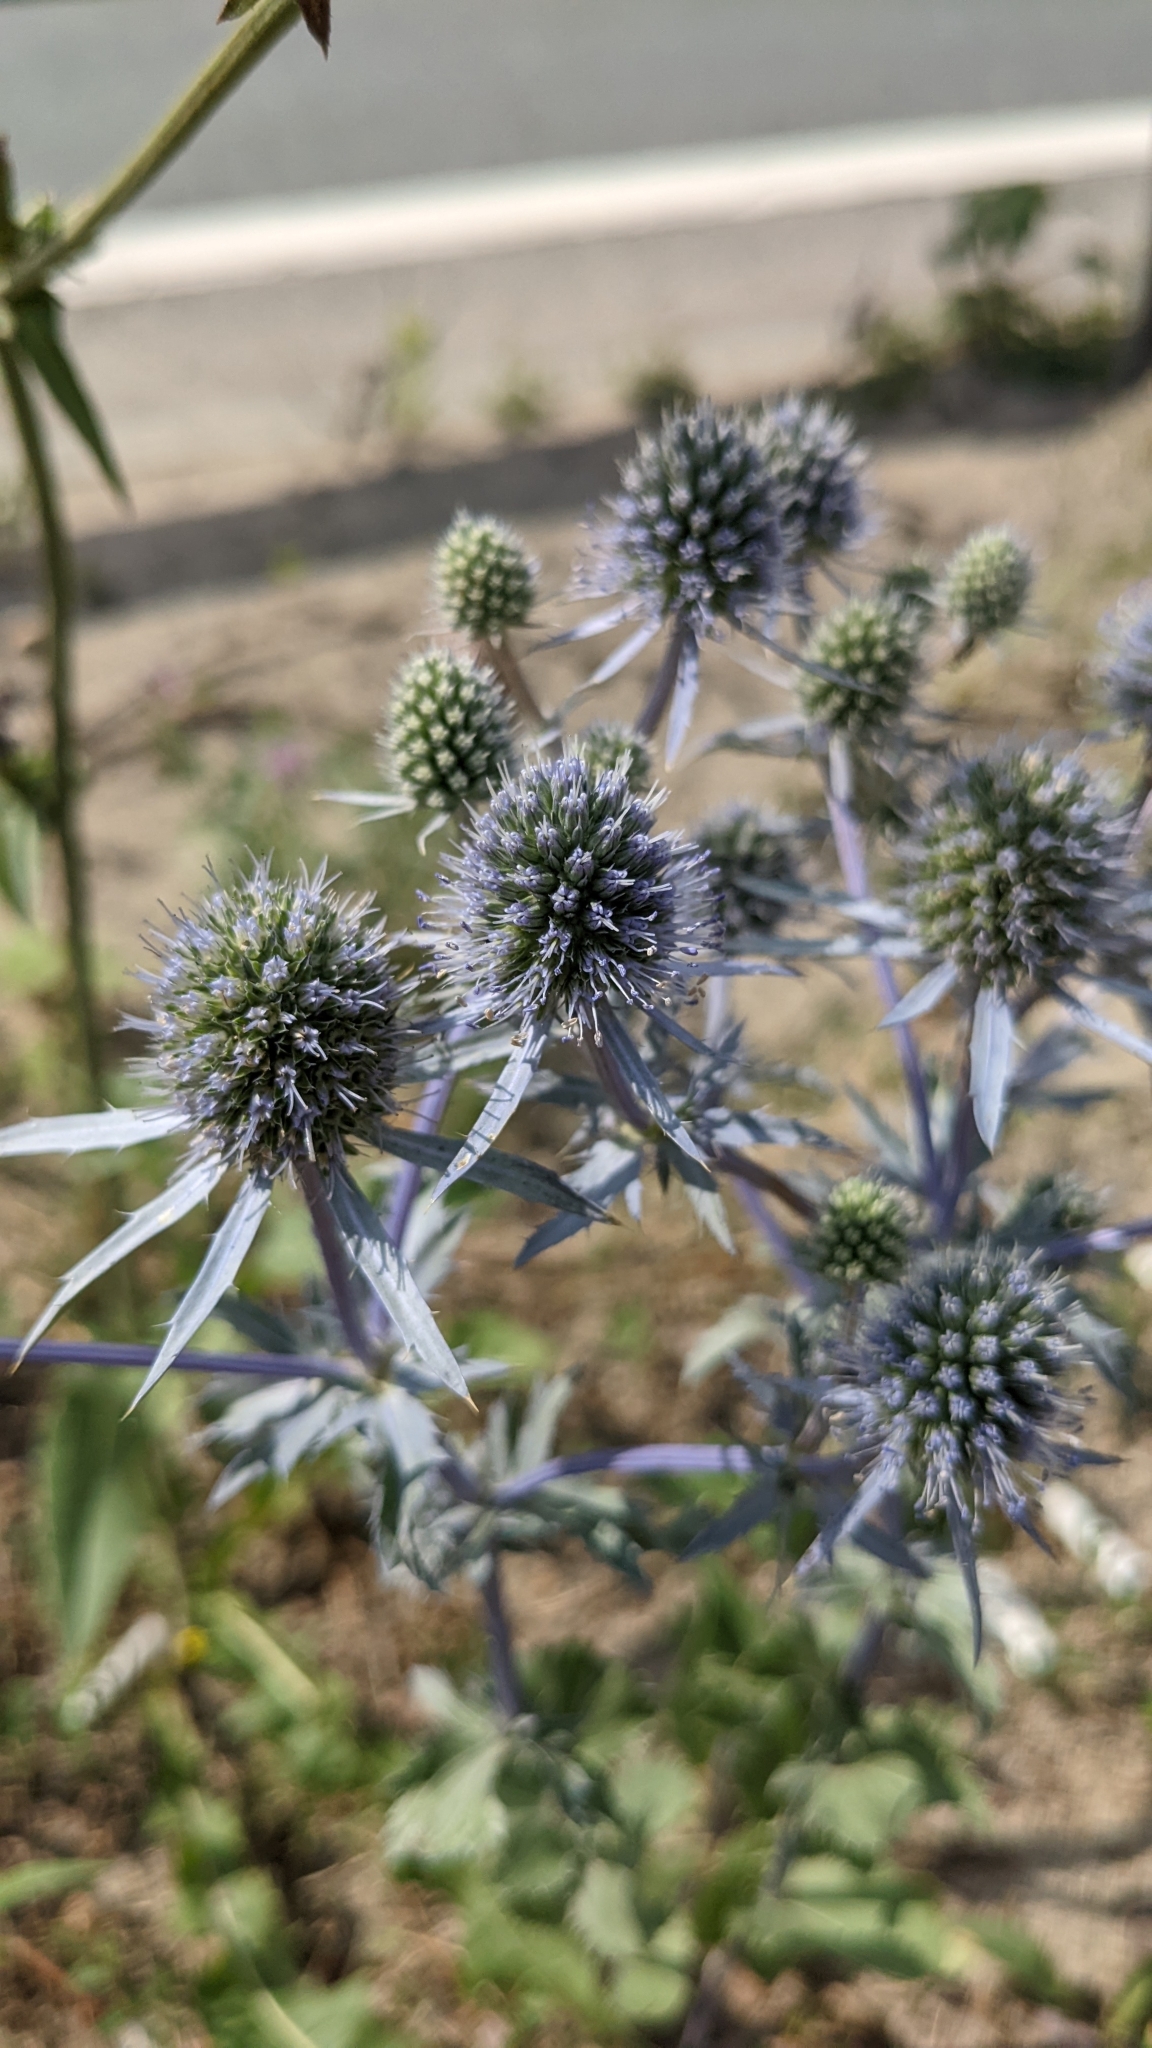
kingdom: Plantae
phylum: Tracheophyta
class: Magnoliopsida
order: Apiales
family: Apiaceae
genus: Eryngium
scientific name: Eryngium planum
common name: Blue eryngo
